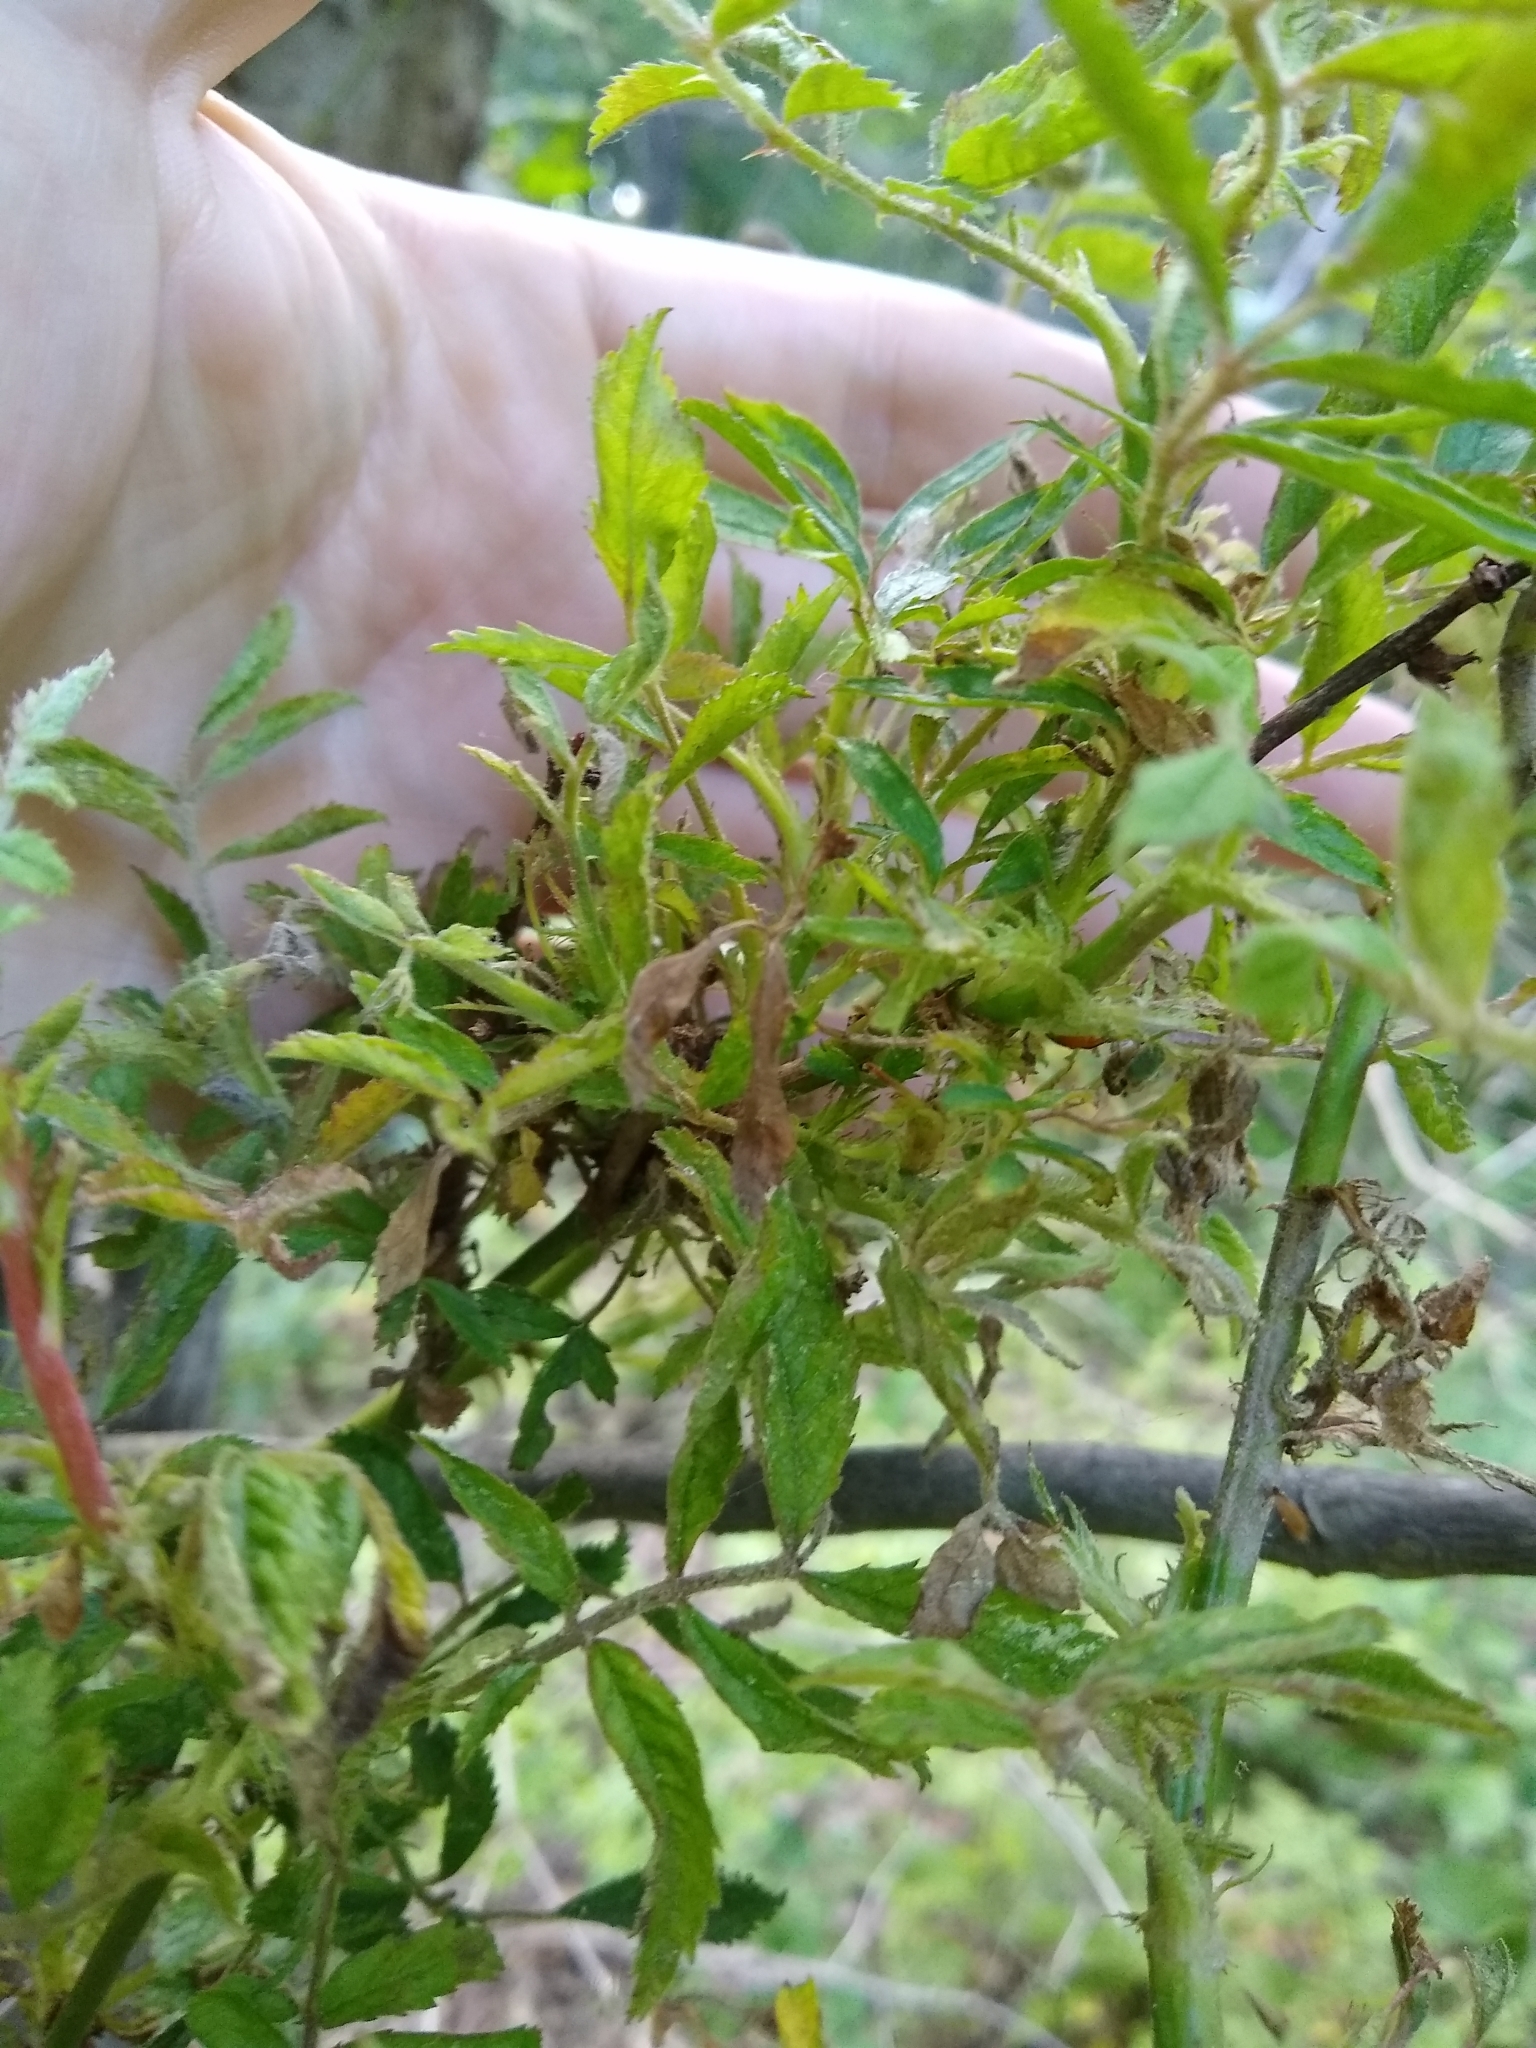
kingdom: Viruses
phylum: Negarnaviricota
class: Ellioviricetes
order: Bunyavirales
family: Fimoviridae
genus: Emaravirus
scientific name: Emaravirus rosae
